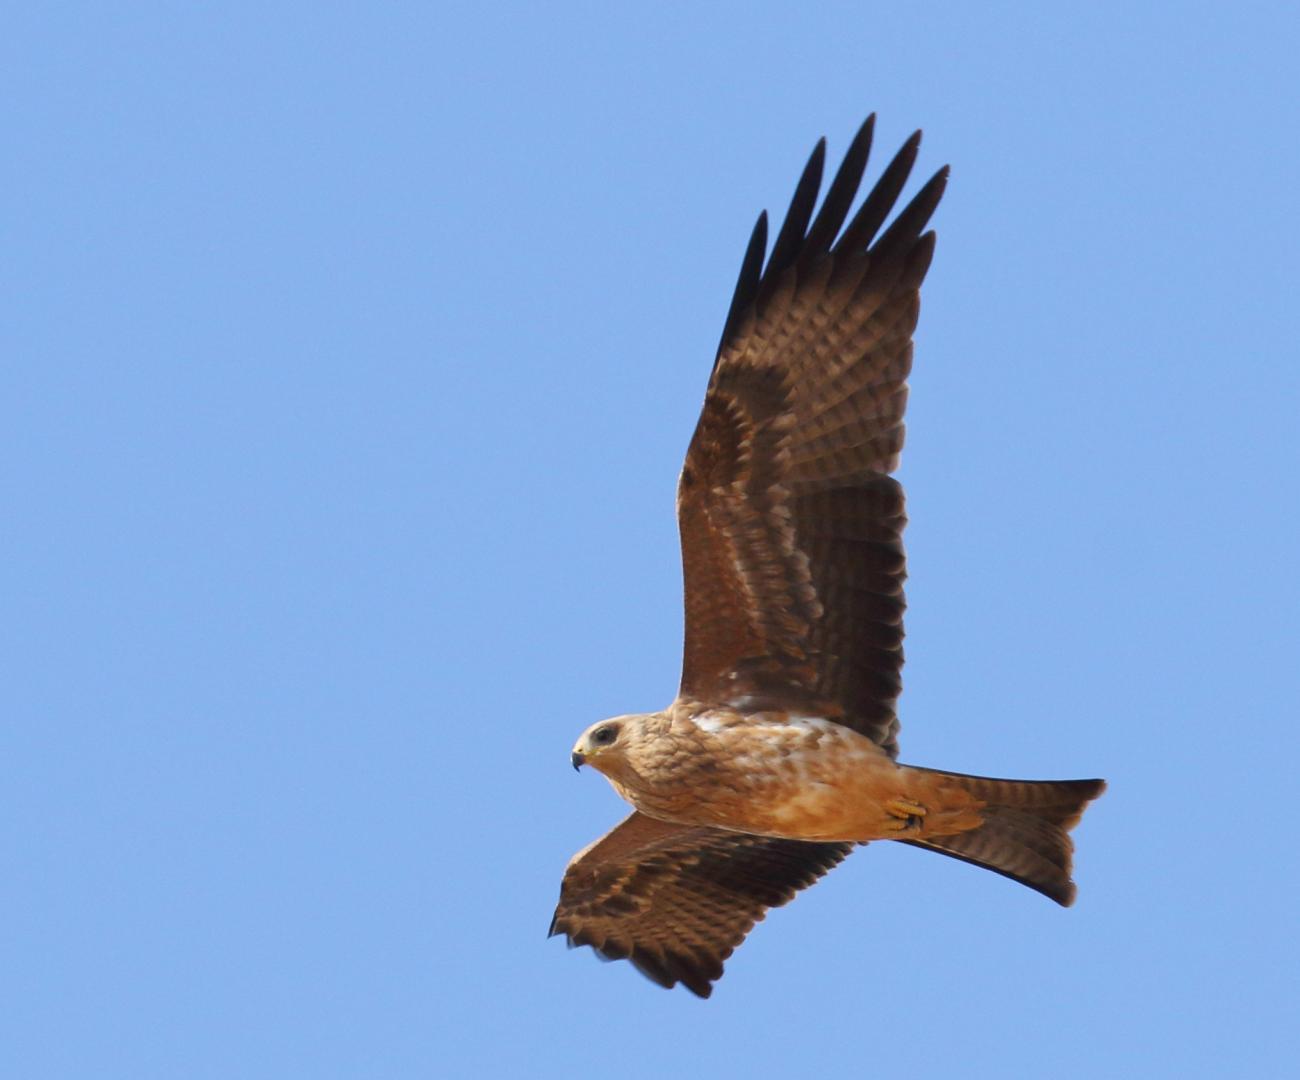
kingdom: Animalia
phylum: Chordata
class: Aves
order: Accipitriformes
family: Accipitridae
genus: Milvus
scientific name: Milvus migrans
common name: Black kite
